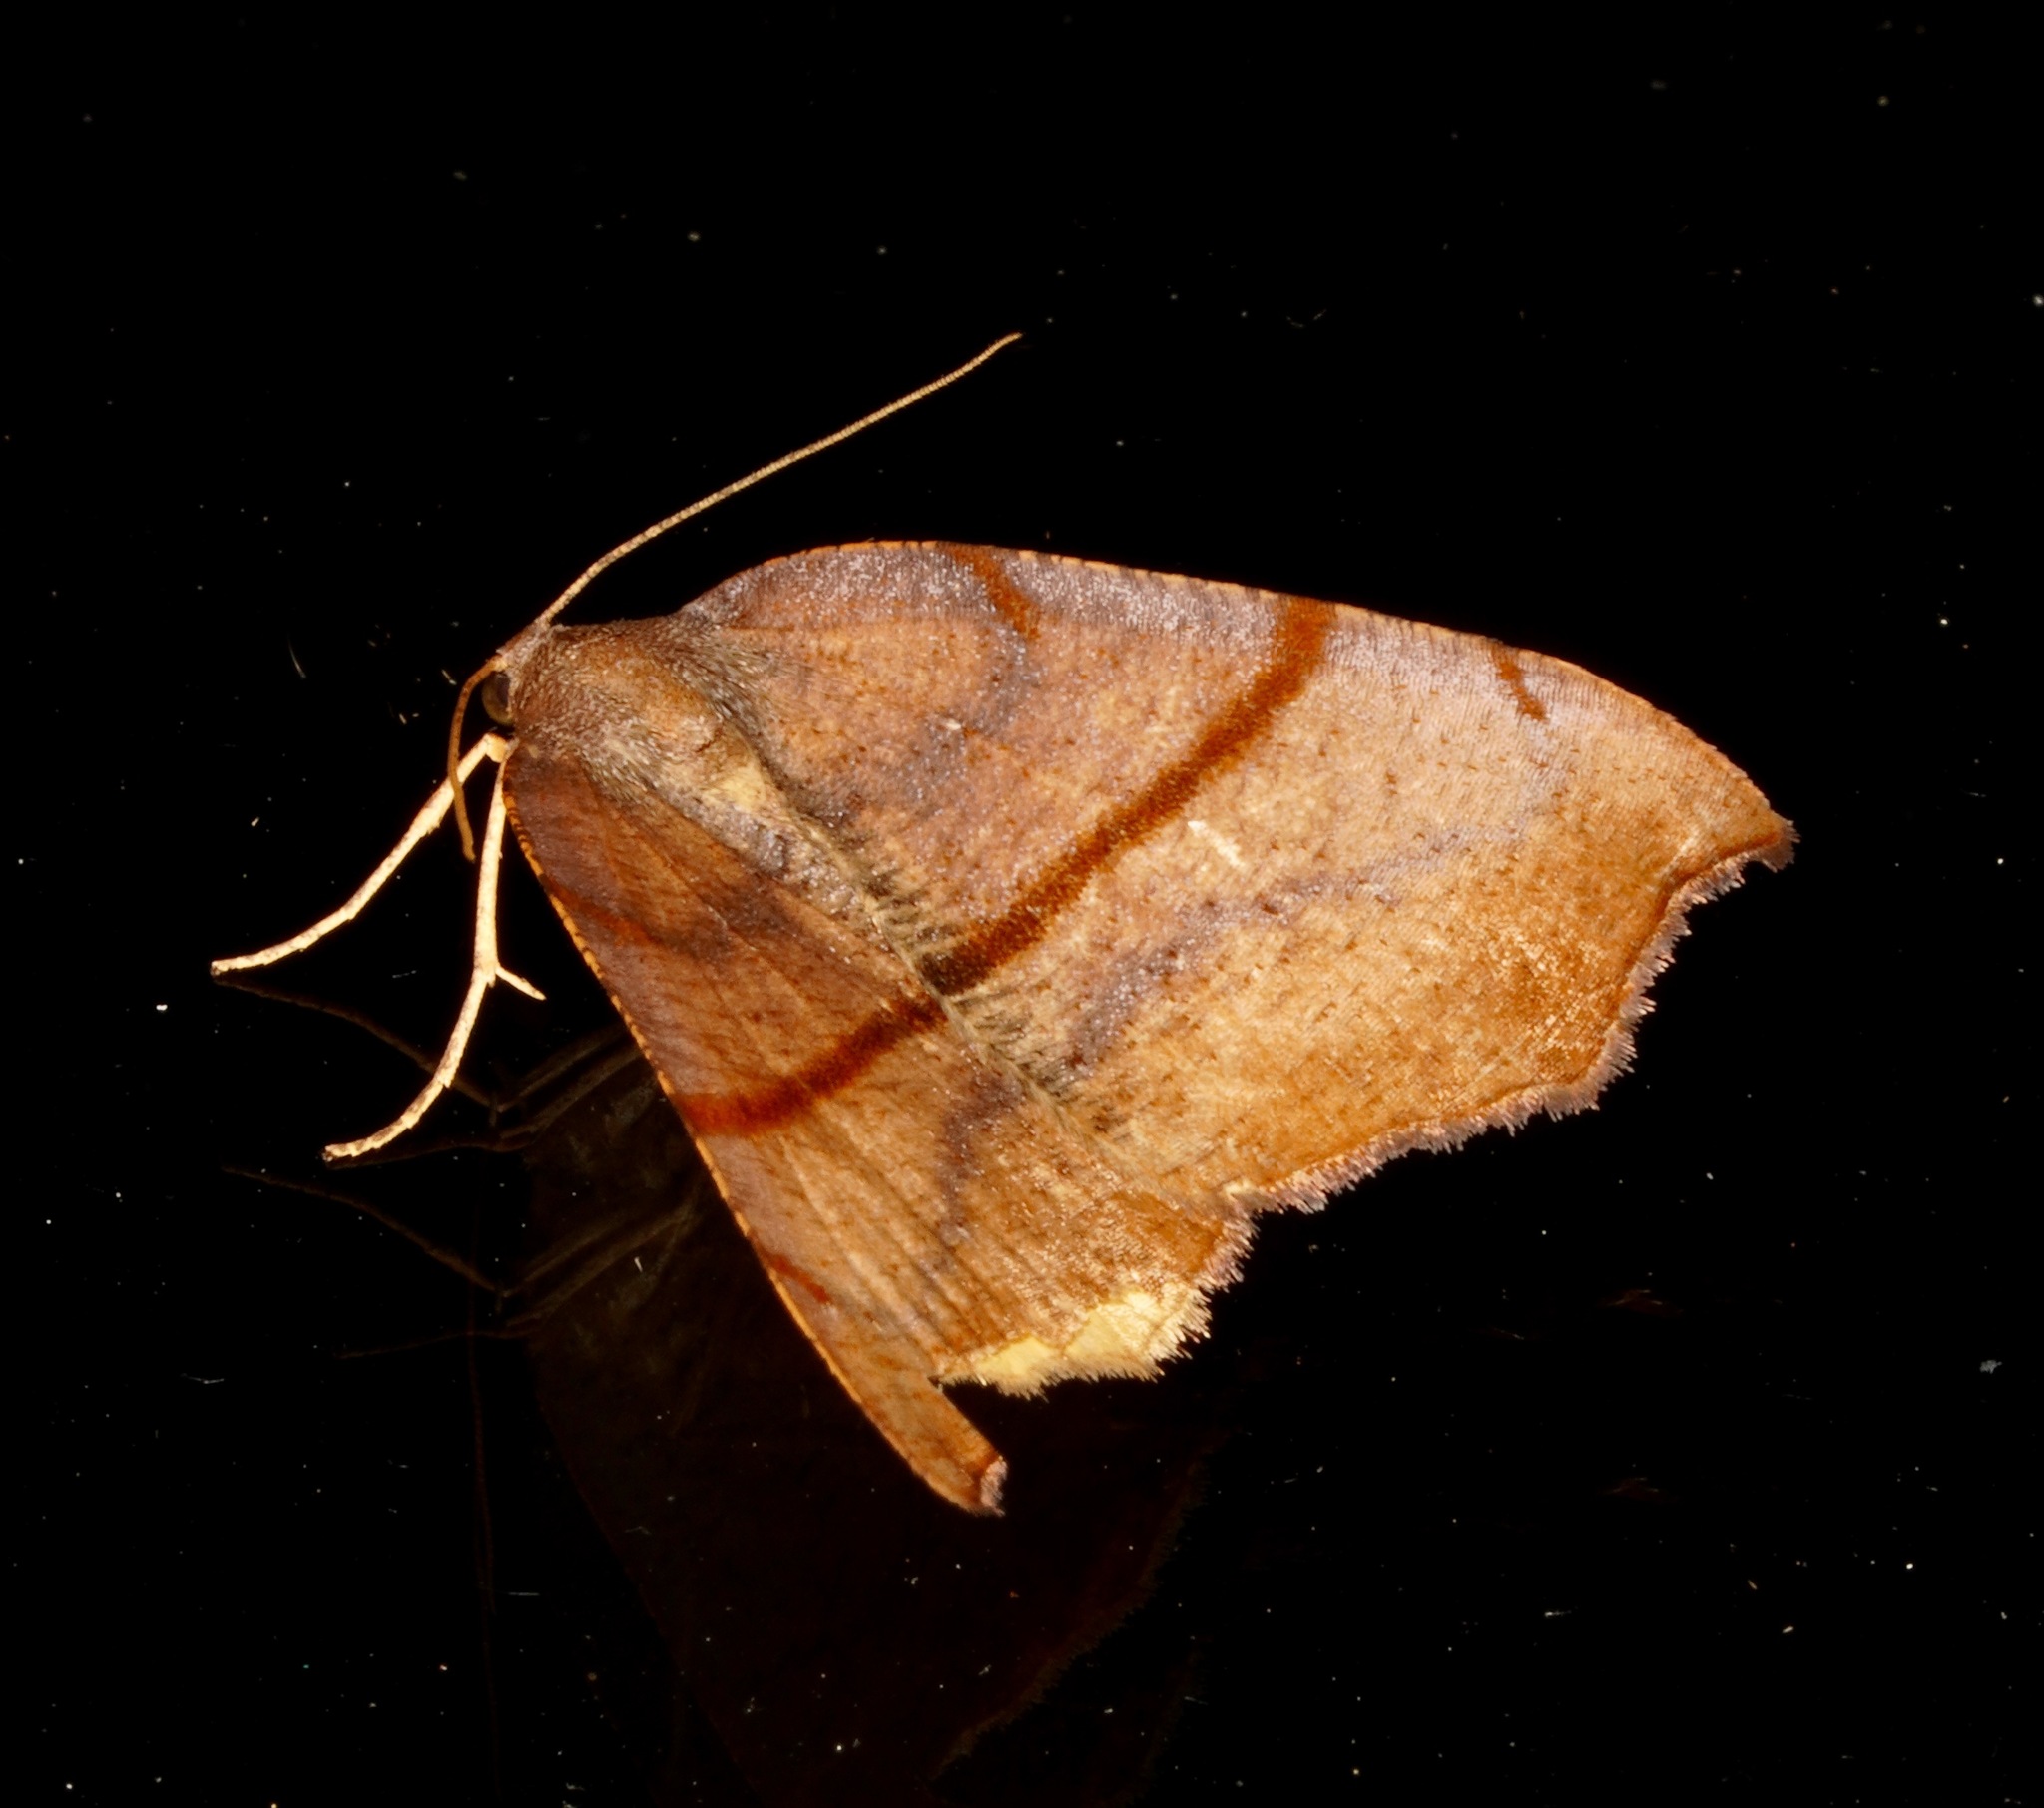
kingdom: Animalia
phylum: Arthropoda
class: Insecta
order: Lepidoptera
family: Geometridae
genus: Sestra
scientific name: Sestra flexata
